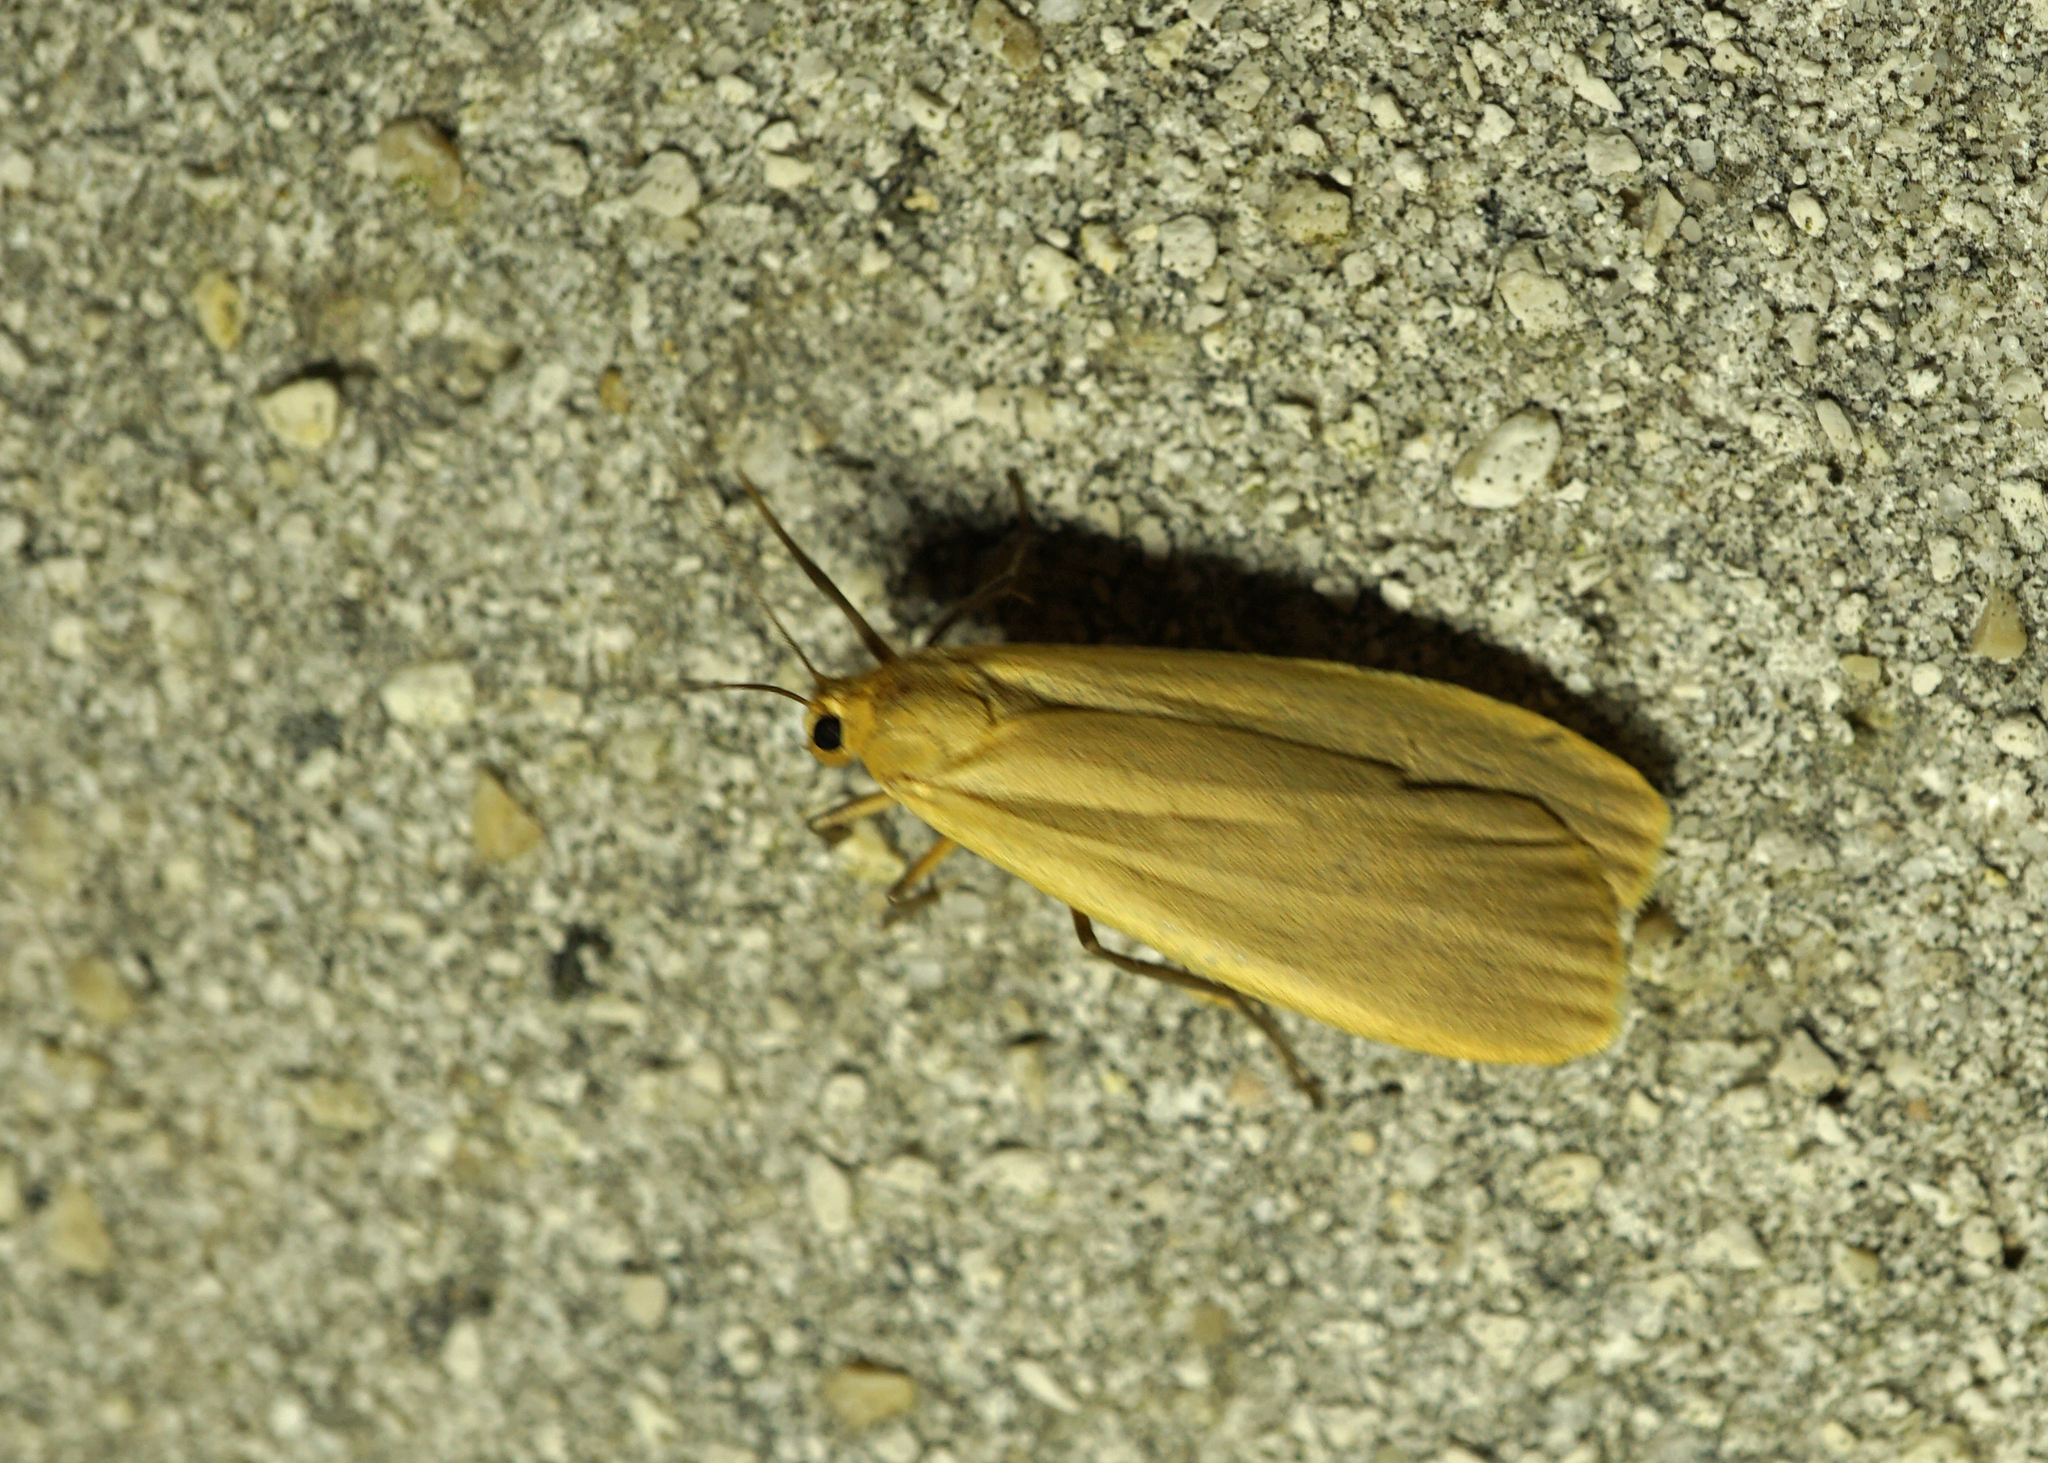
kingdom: Animalia
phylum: Arthropoda
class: Insecta
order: Lepidoptera
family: Erebidae
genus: Collita
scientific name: Collita griseola
